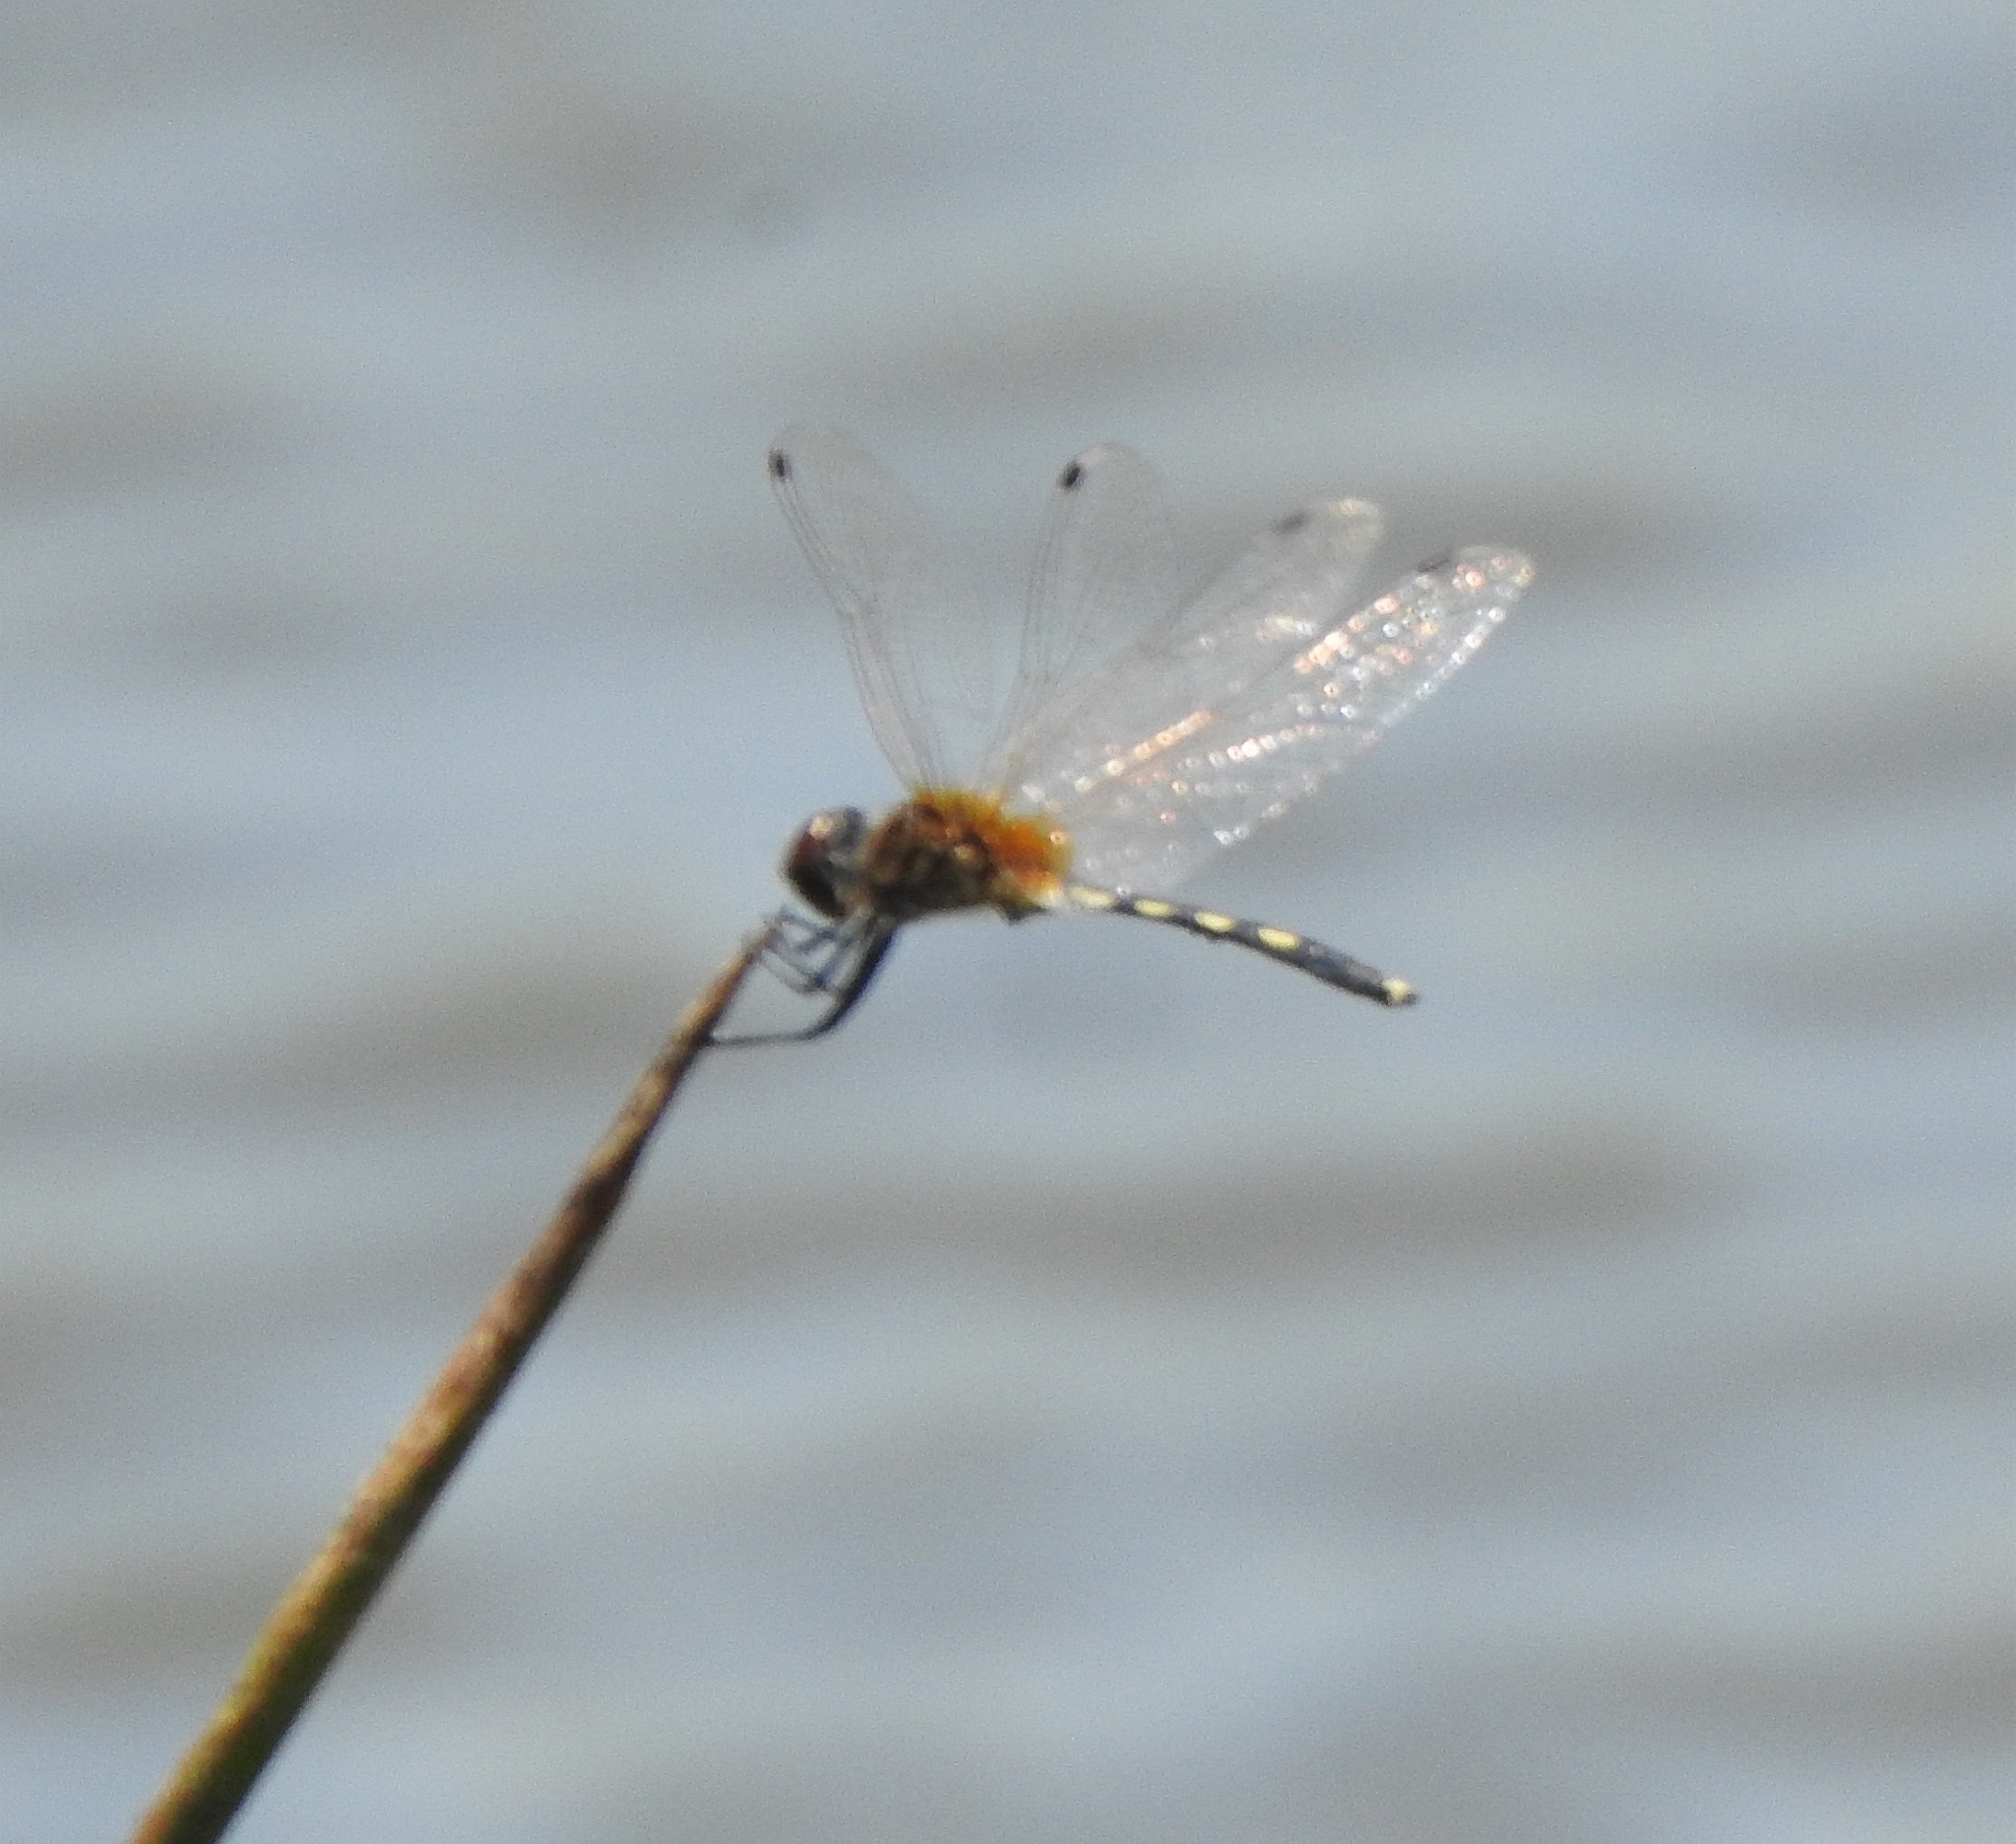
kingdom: Animalia
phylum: Arthropoda
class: Insecta
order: Odonata
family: Libellulidae
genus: Trithemis
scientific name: Trithemis pallidinervis
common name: Dancing dropwing
